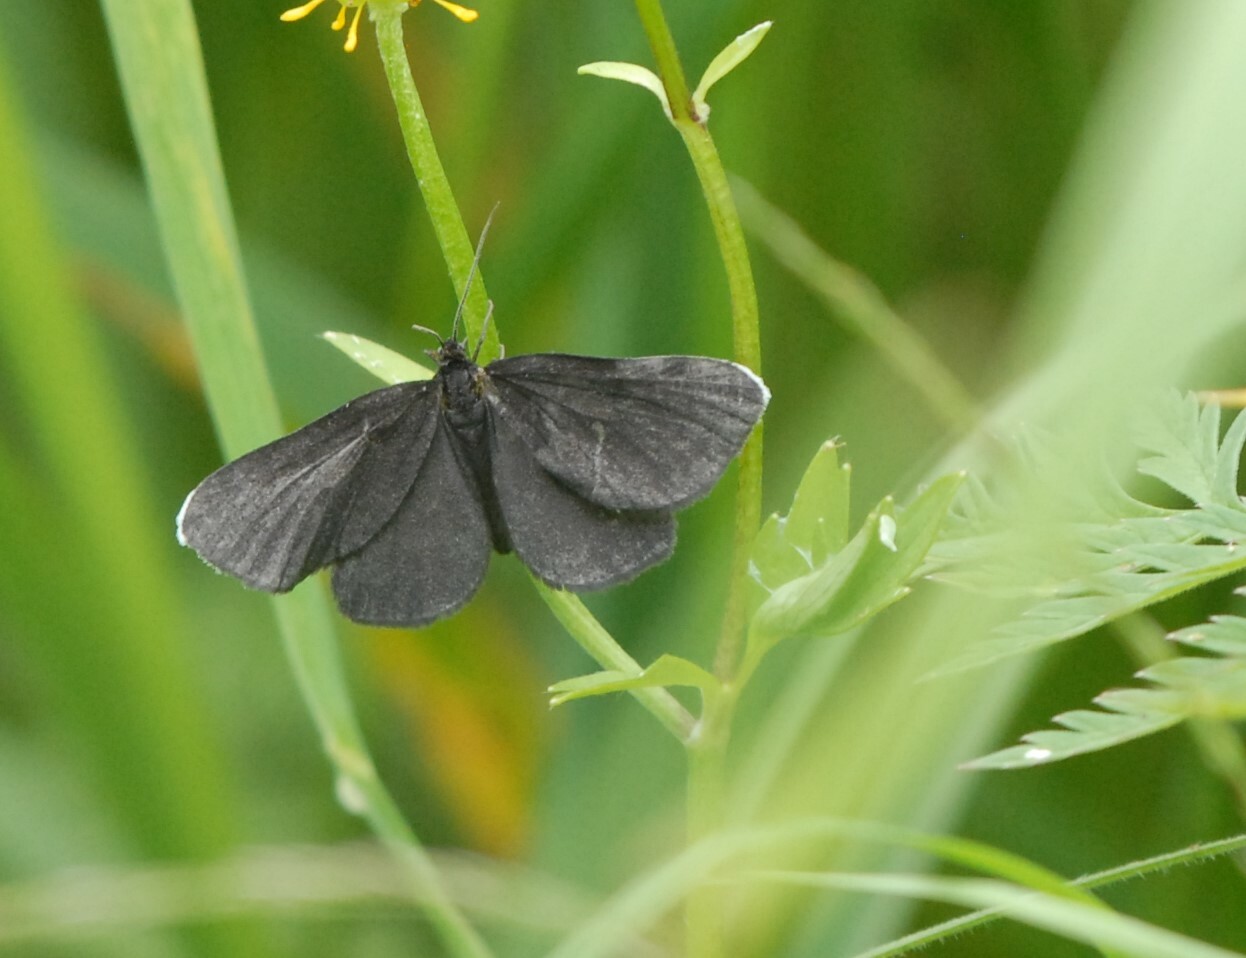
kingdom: Animalia
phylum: Arthropoda
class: Insecta
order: Lepidoptera
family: Geometridae
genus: Odezia
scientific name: Odezia atrata
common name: Chimney sweeper
